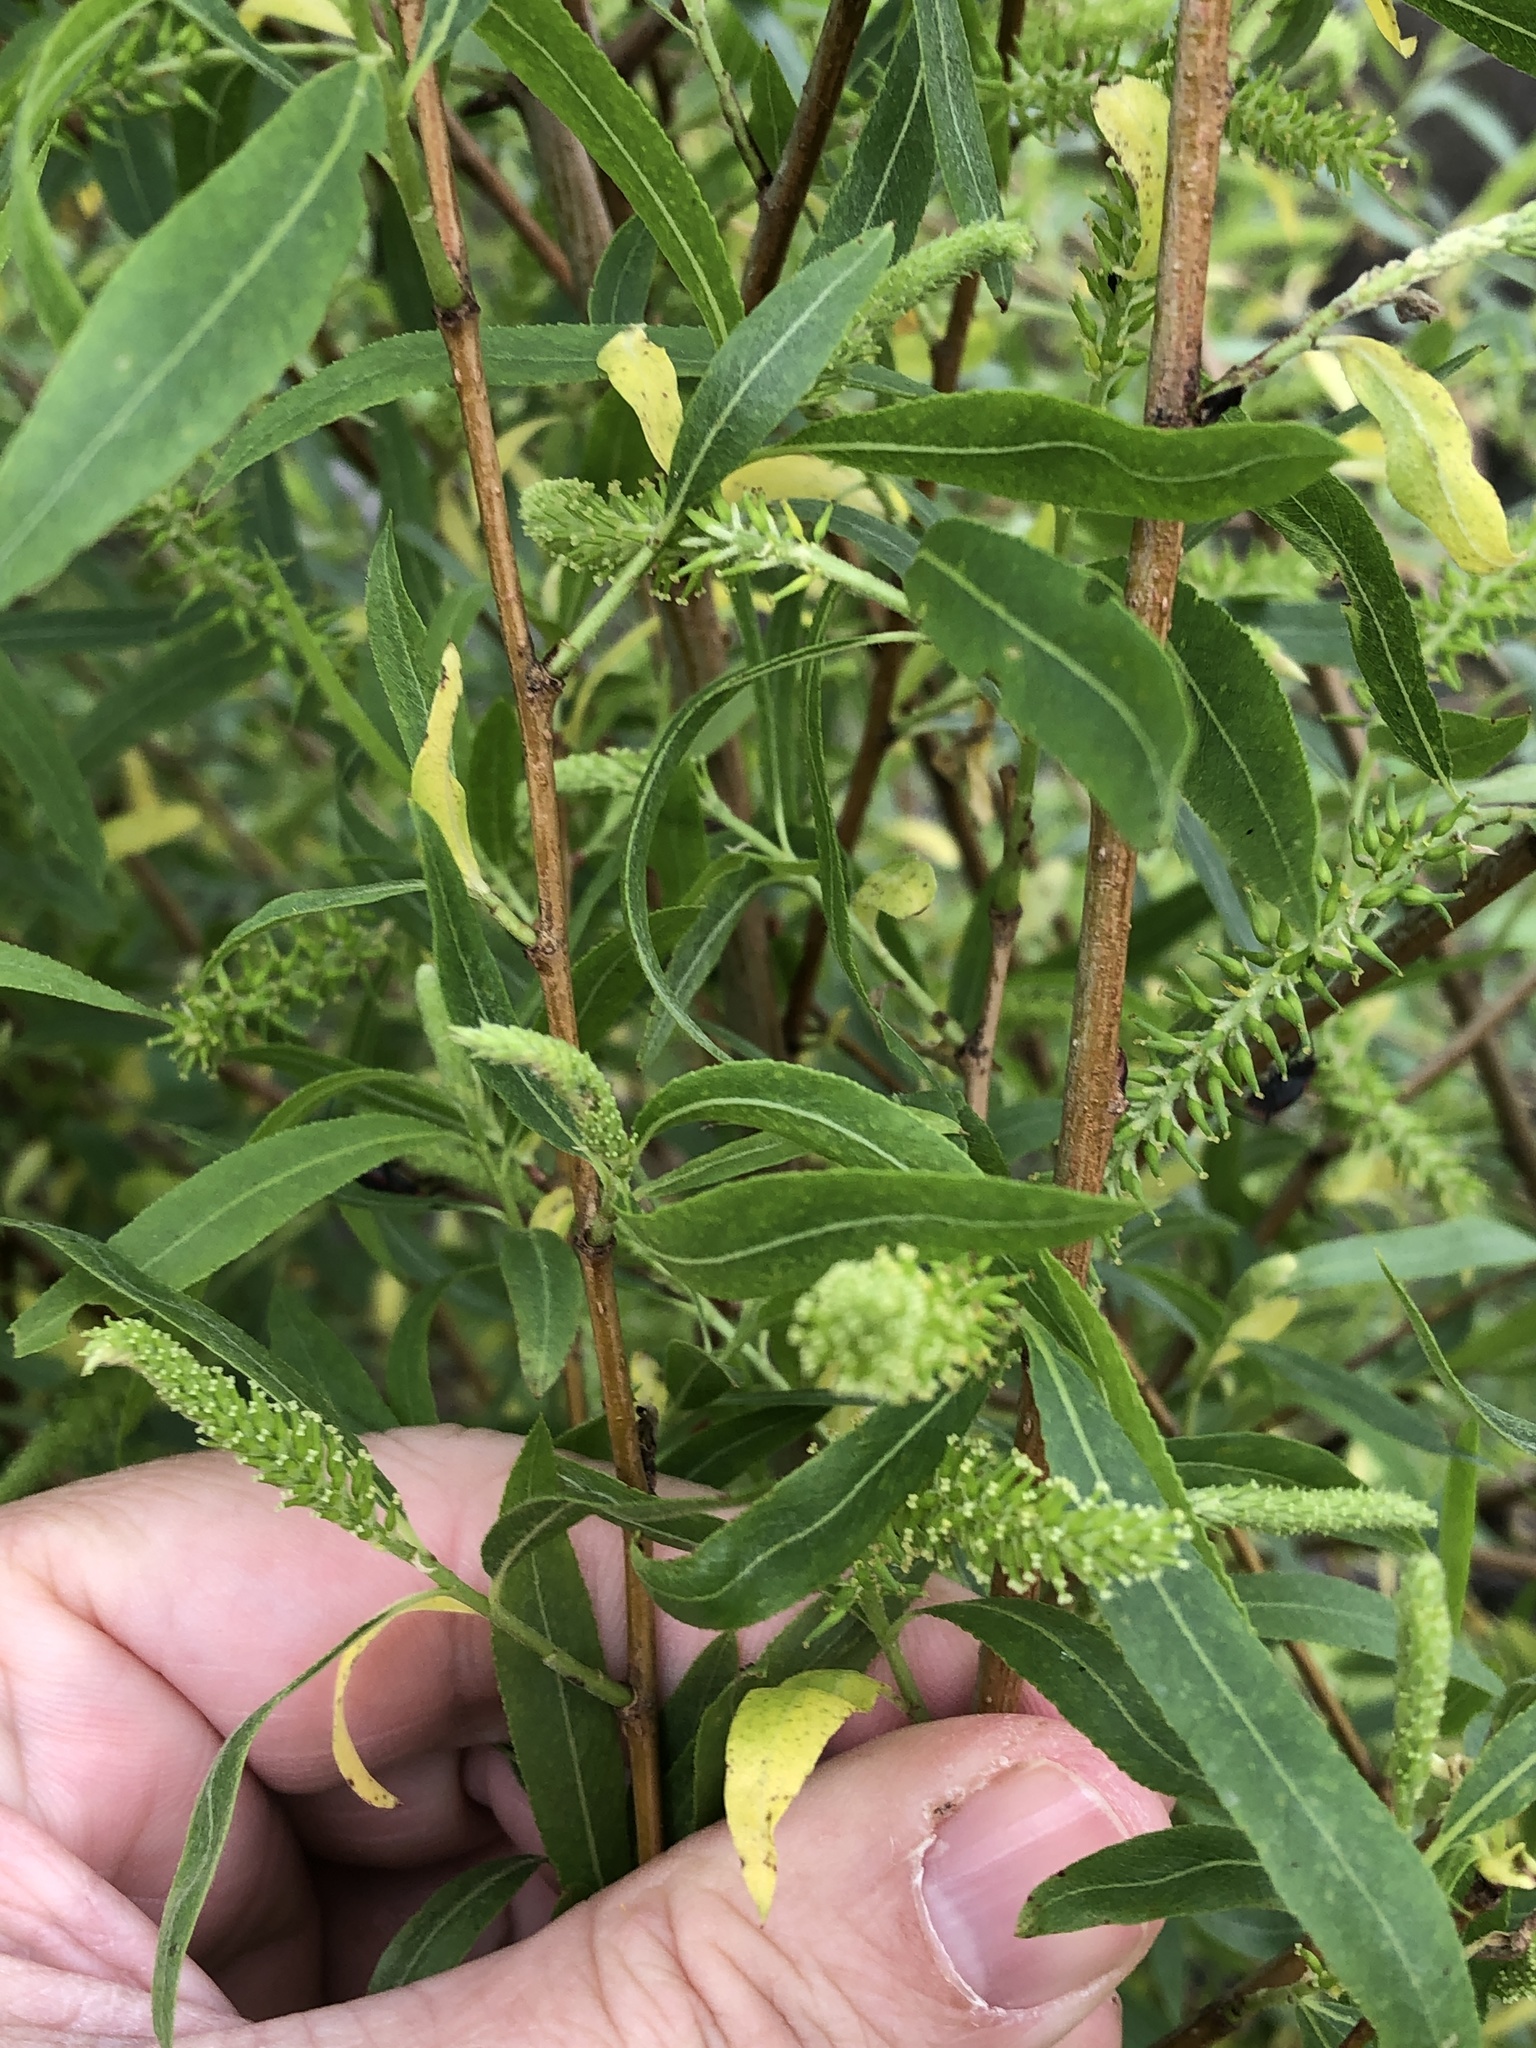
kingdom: Plantae
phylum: Tracheophyta
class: Magnoliopsida
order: Malpighiales
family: Salicaceae
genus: Salix
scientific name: Salix nigra
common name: Black willow
